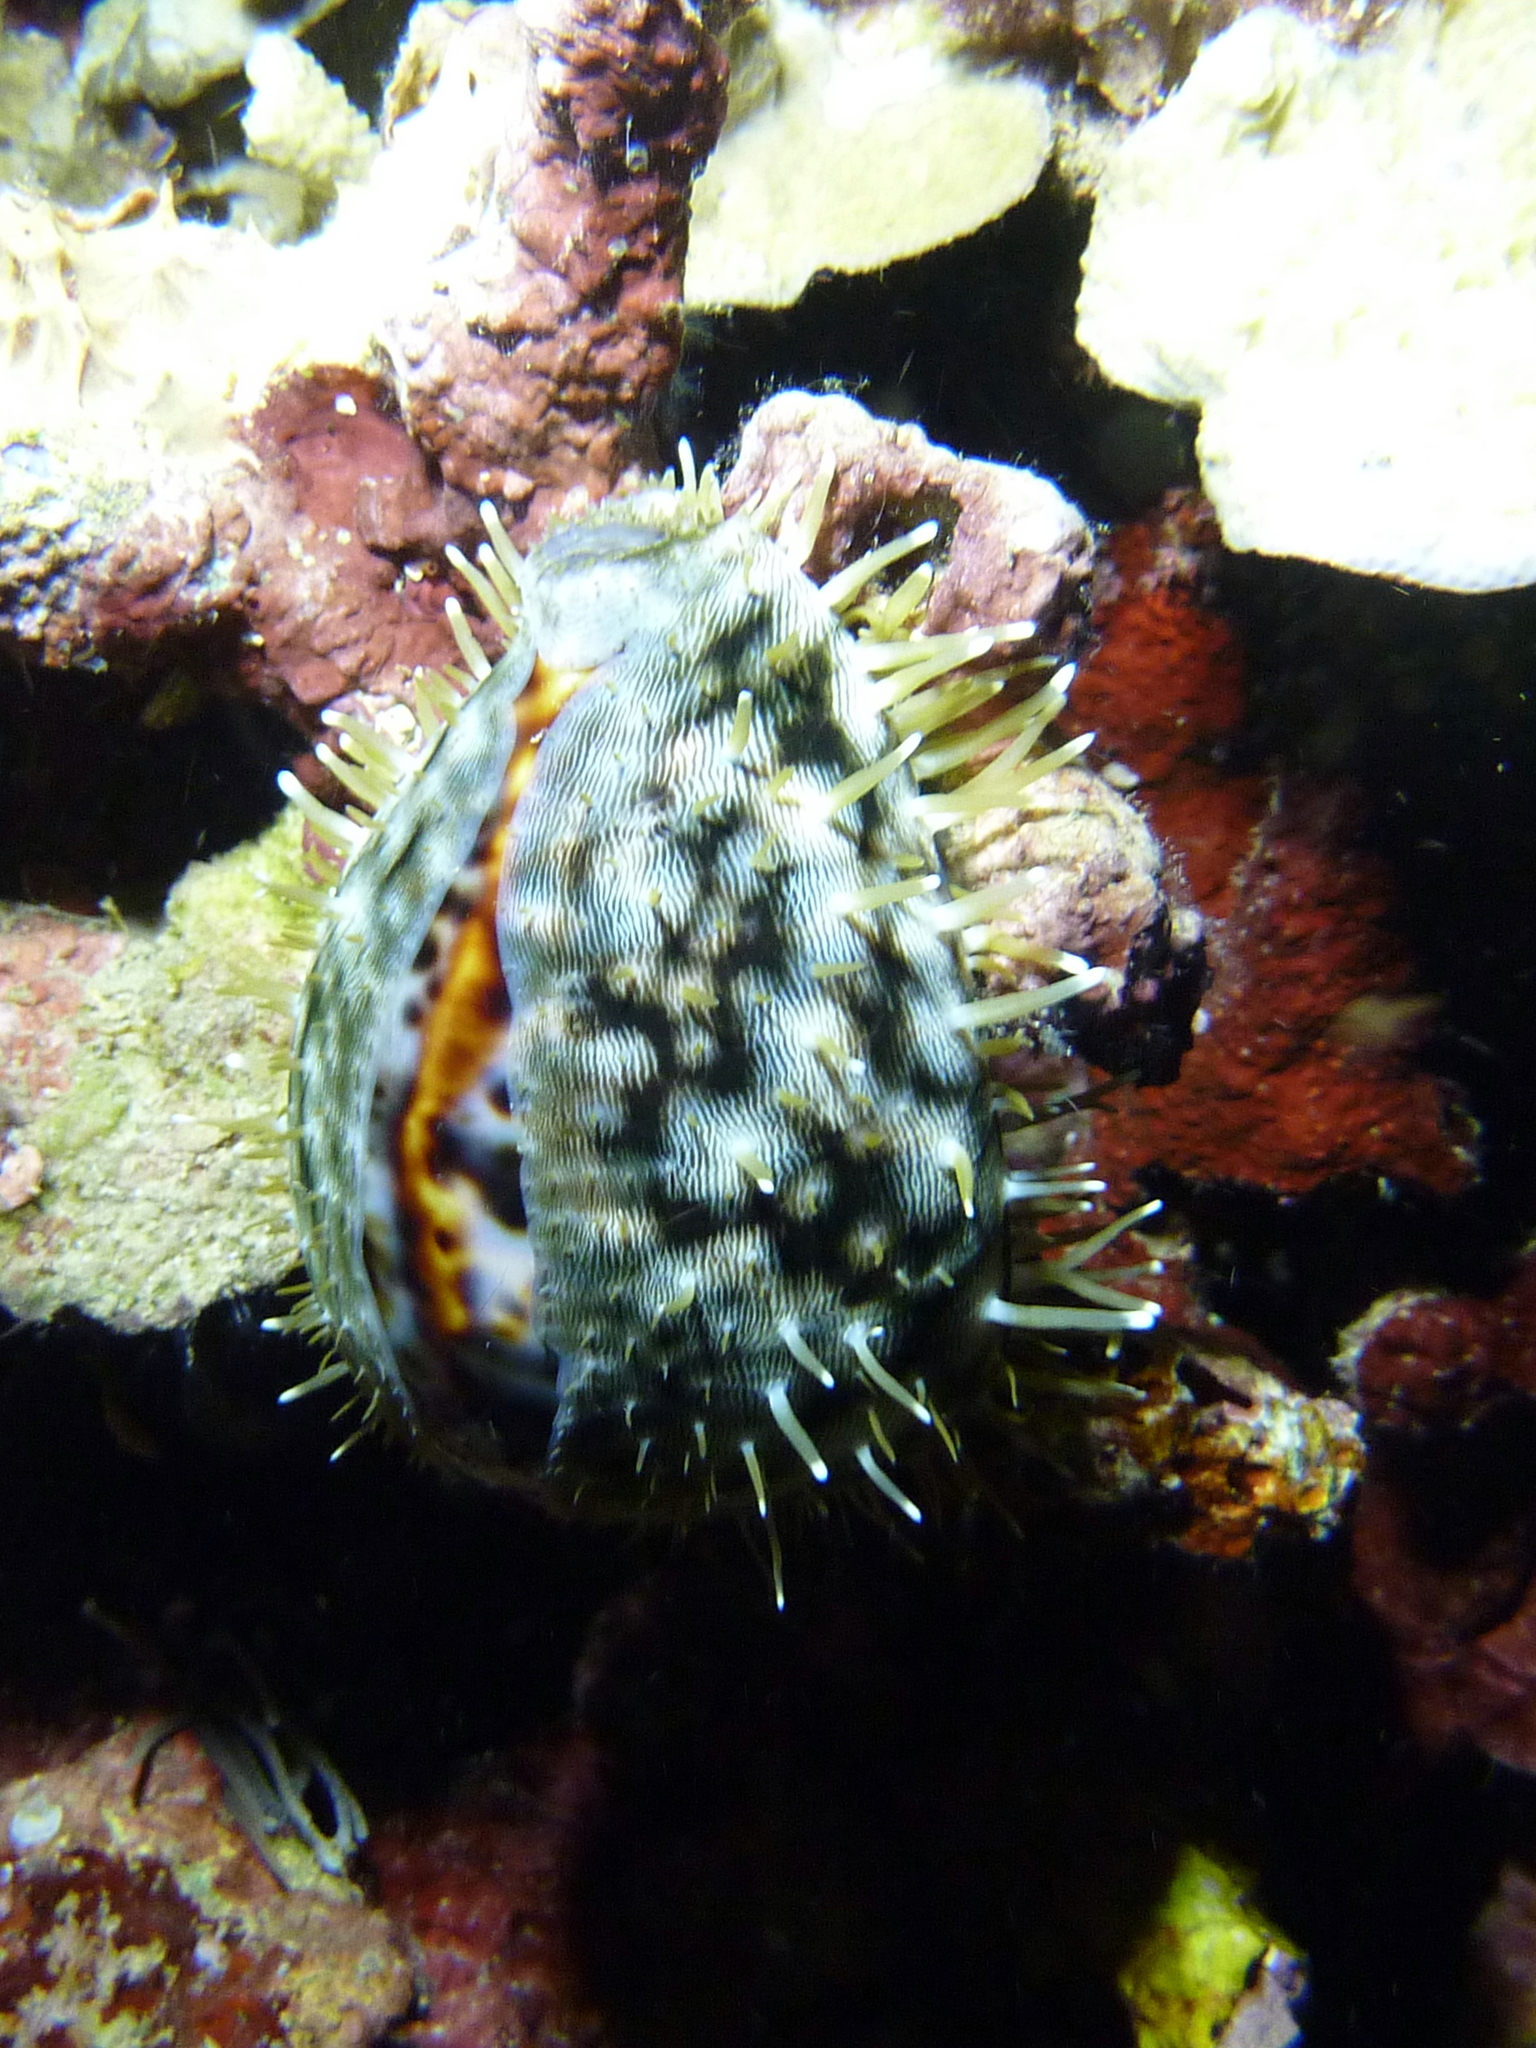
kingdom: Animalia
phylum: Mollusca
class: Gastropoda
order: Littorinimorpha
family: Cypraeidae
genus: Cypraea
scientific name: Cypraea tigris
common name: Tiger cowrie
